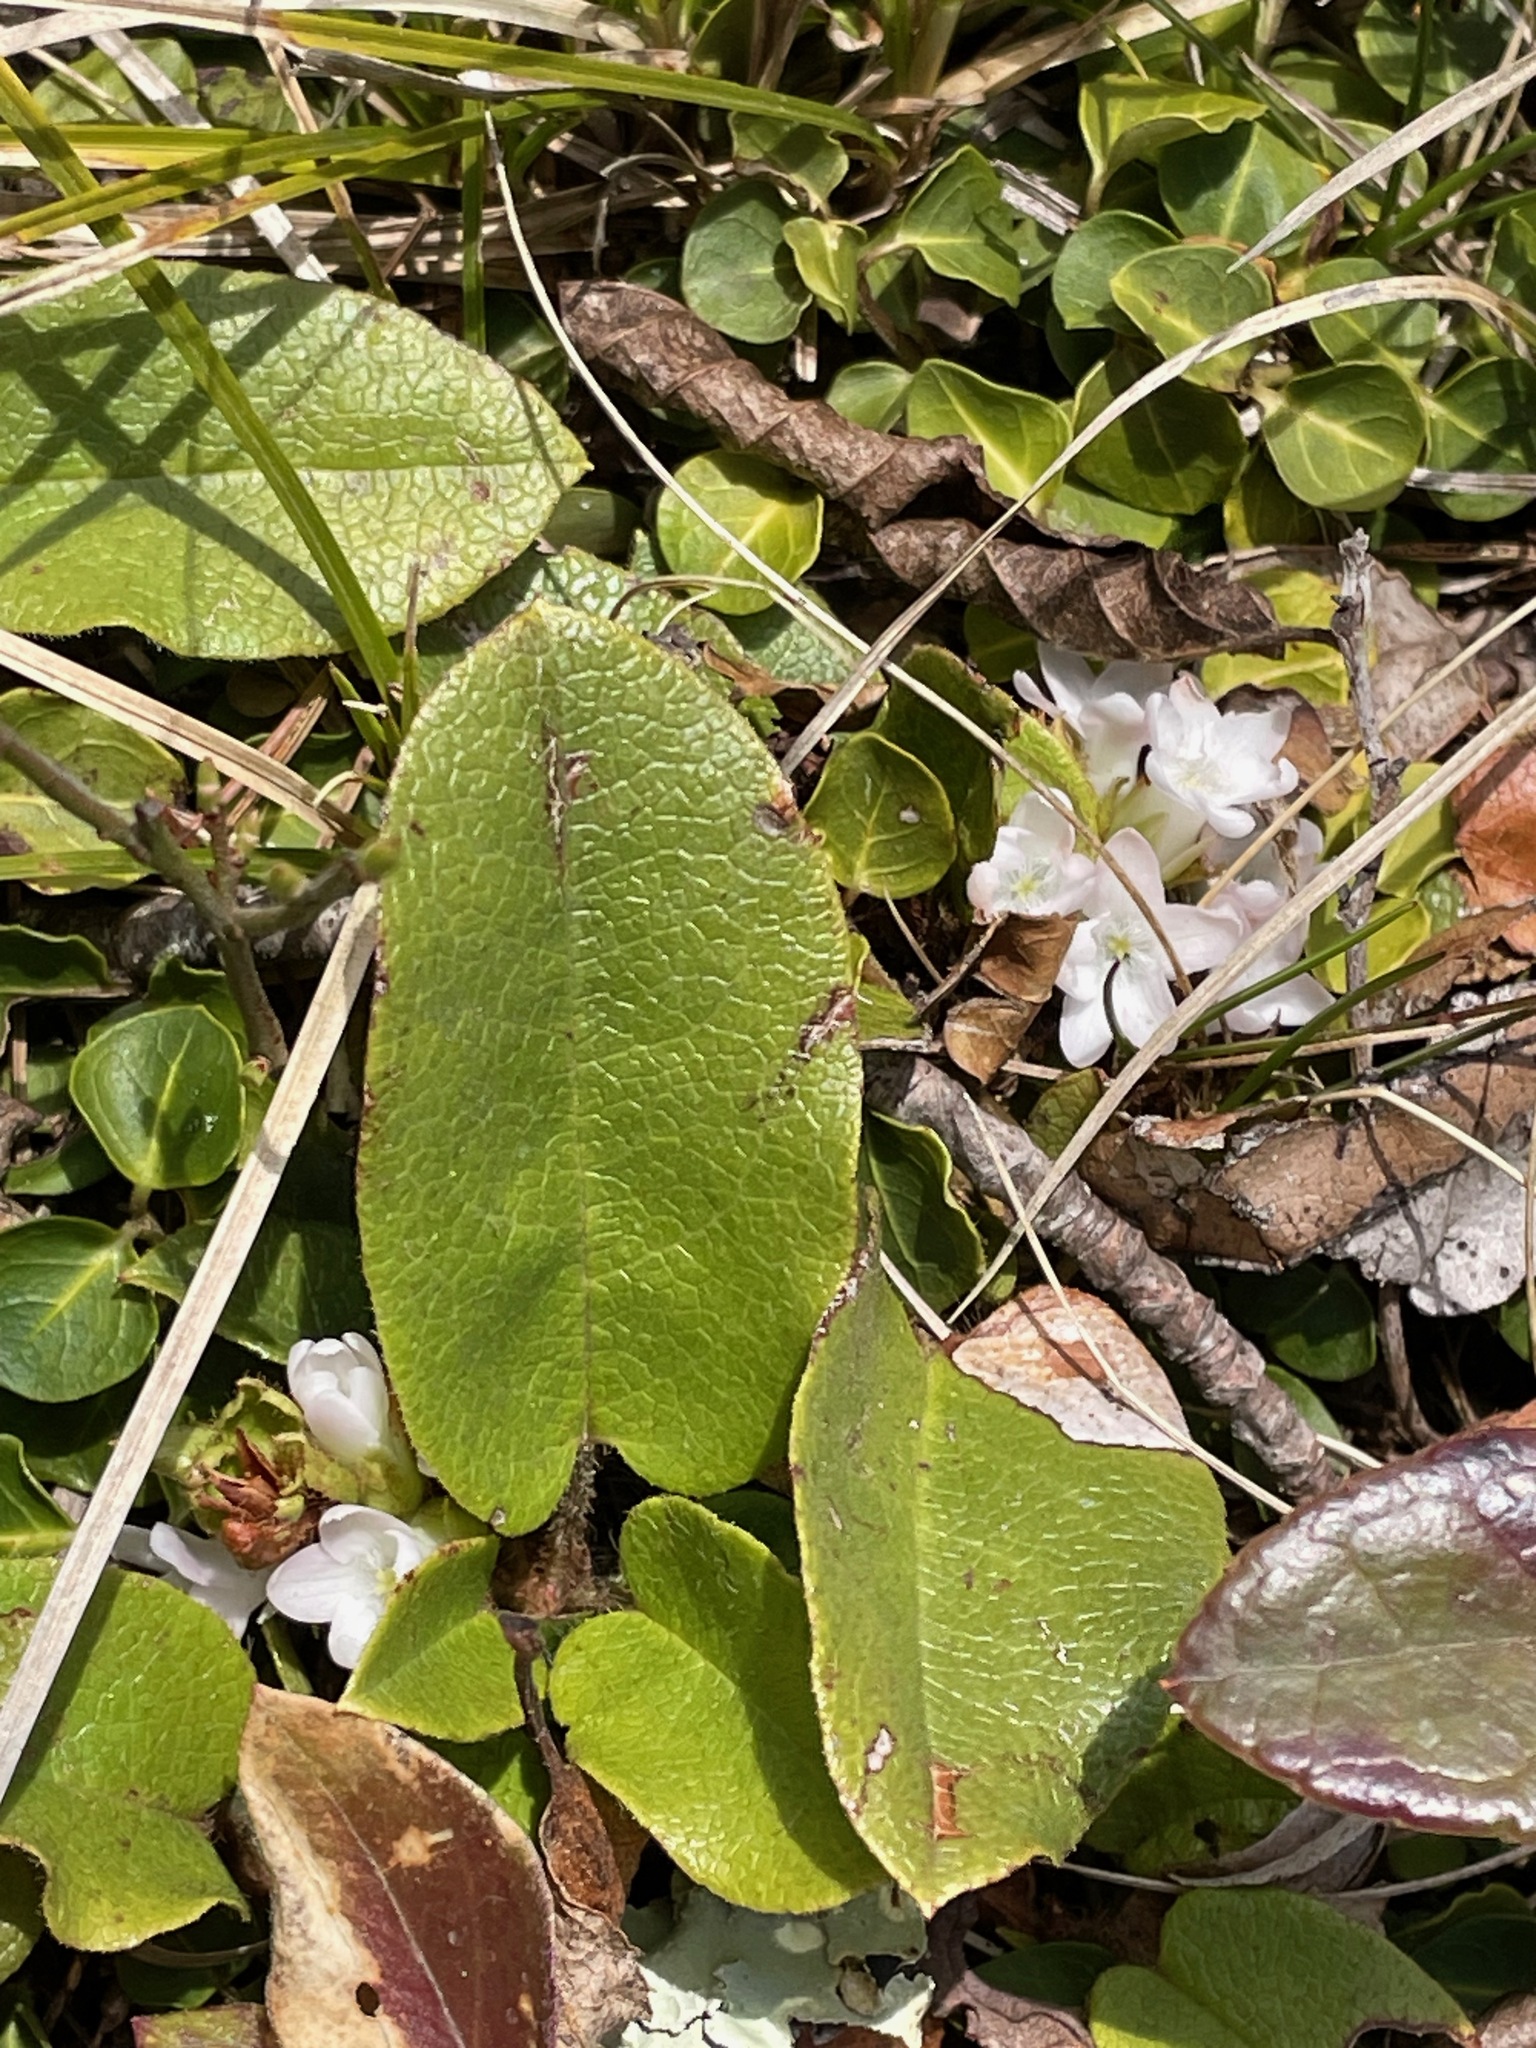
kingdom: Plantae
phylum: Tracheophyta
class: Magnoliopsida
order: Ericales
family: Ericaceae
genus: Epigaea
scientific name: Epigaea repens
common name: Gravelroot
